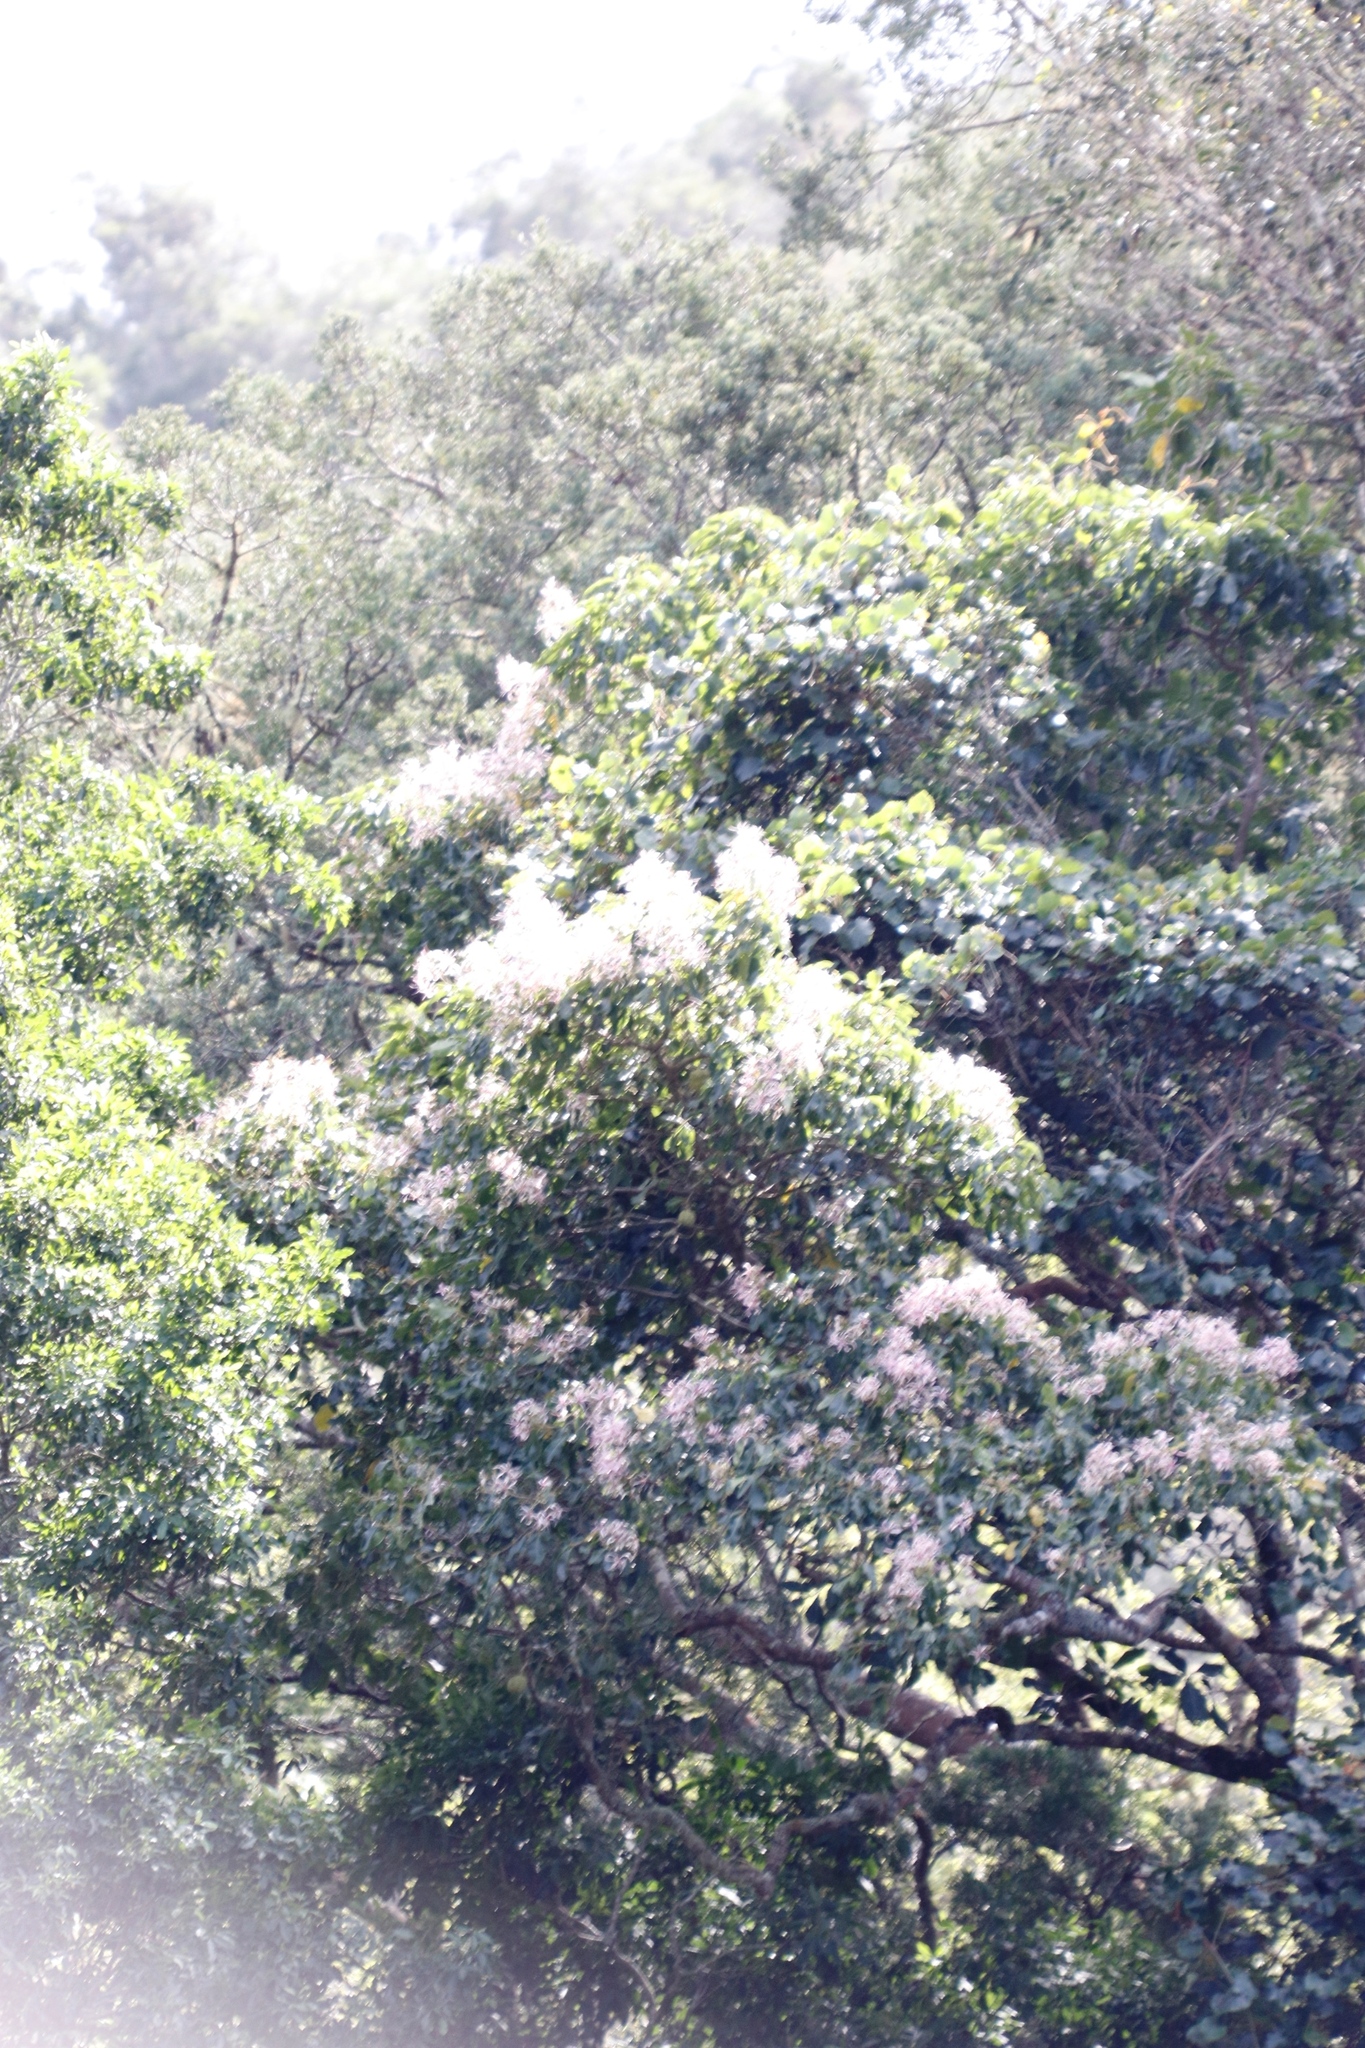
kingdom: Plantae
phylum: Tracheophyta
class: Magnoliopsida
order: Sapindales
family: Rutaceae
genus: Calodendrum
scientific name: Calodendrum capense
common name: Cape chestnut
